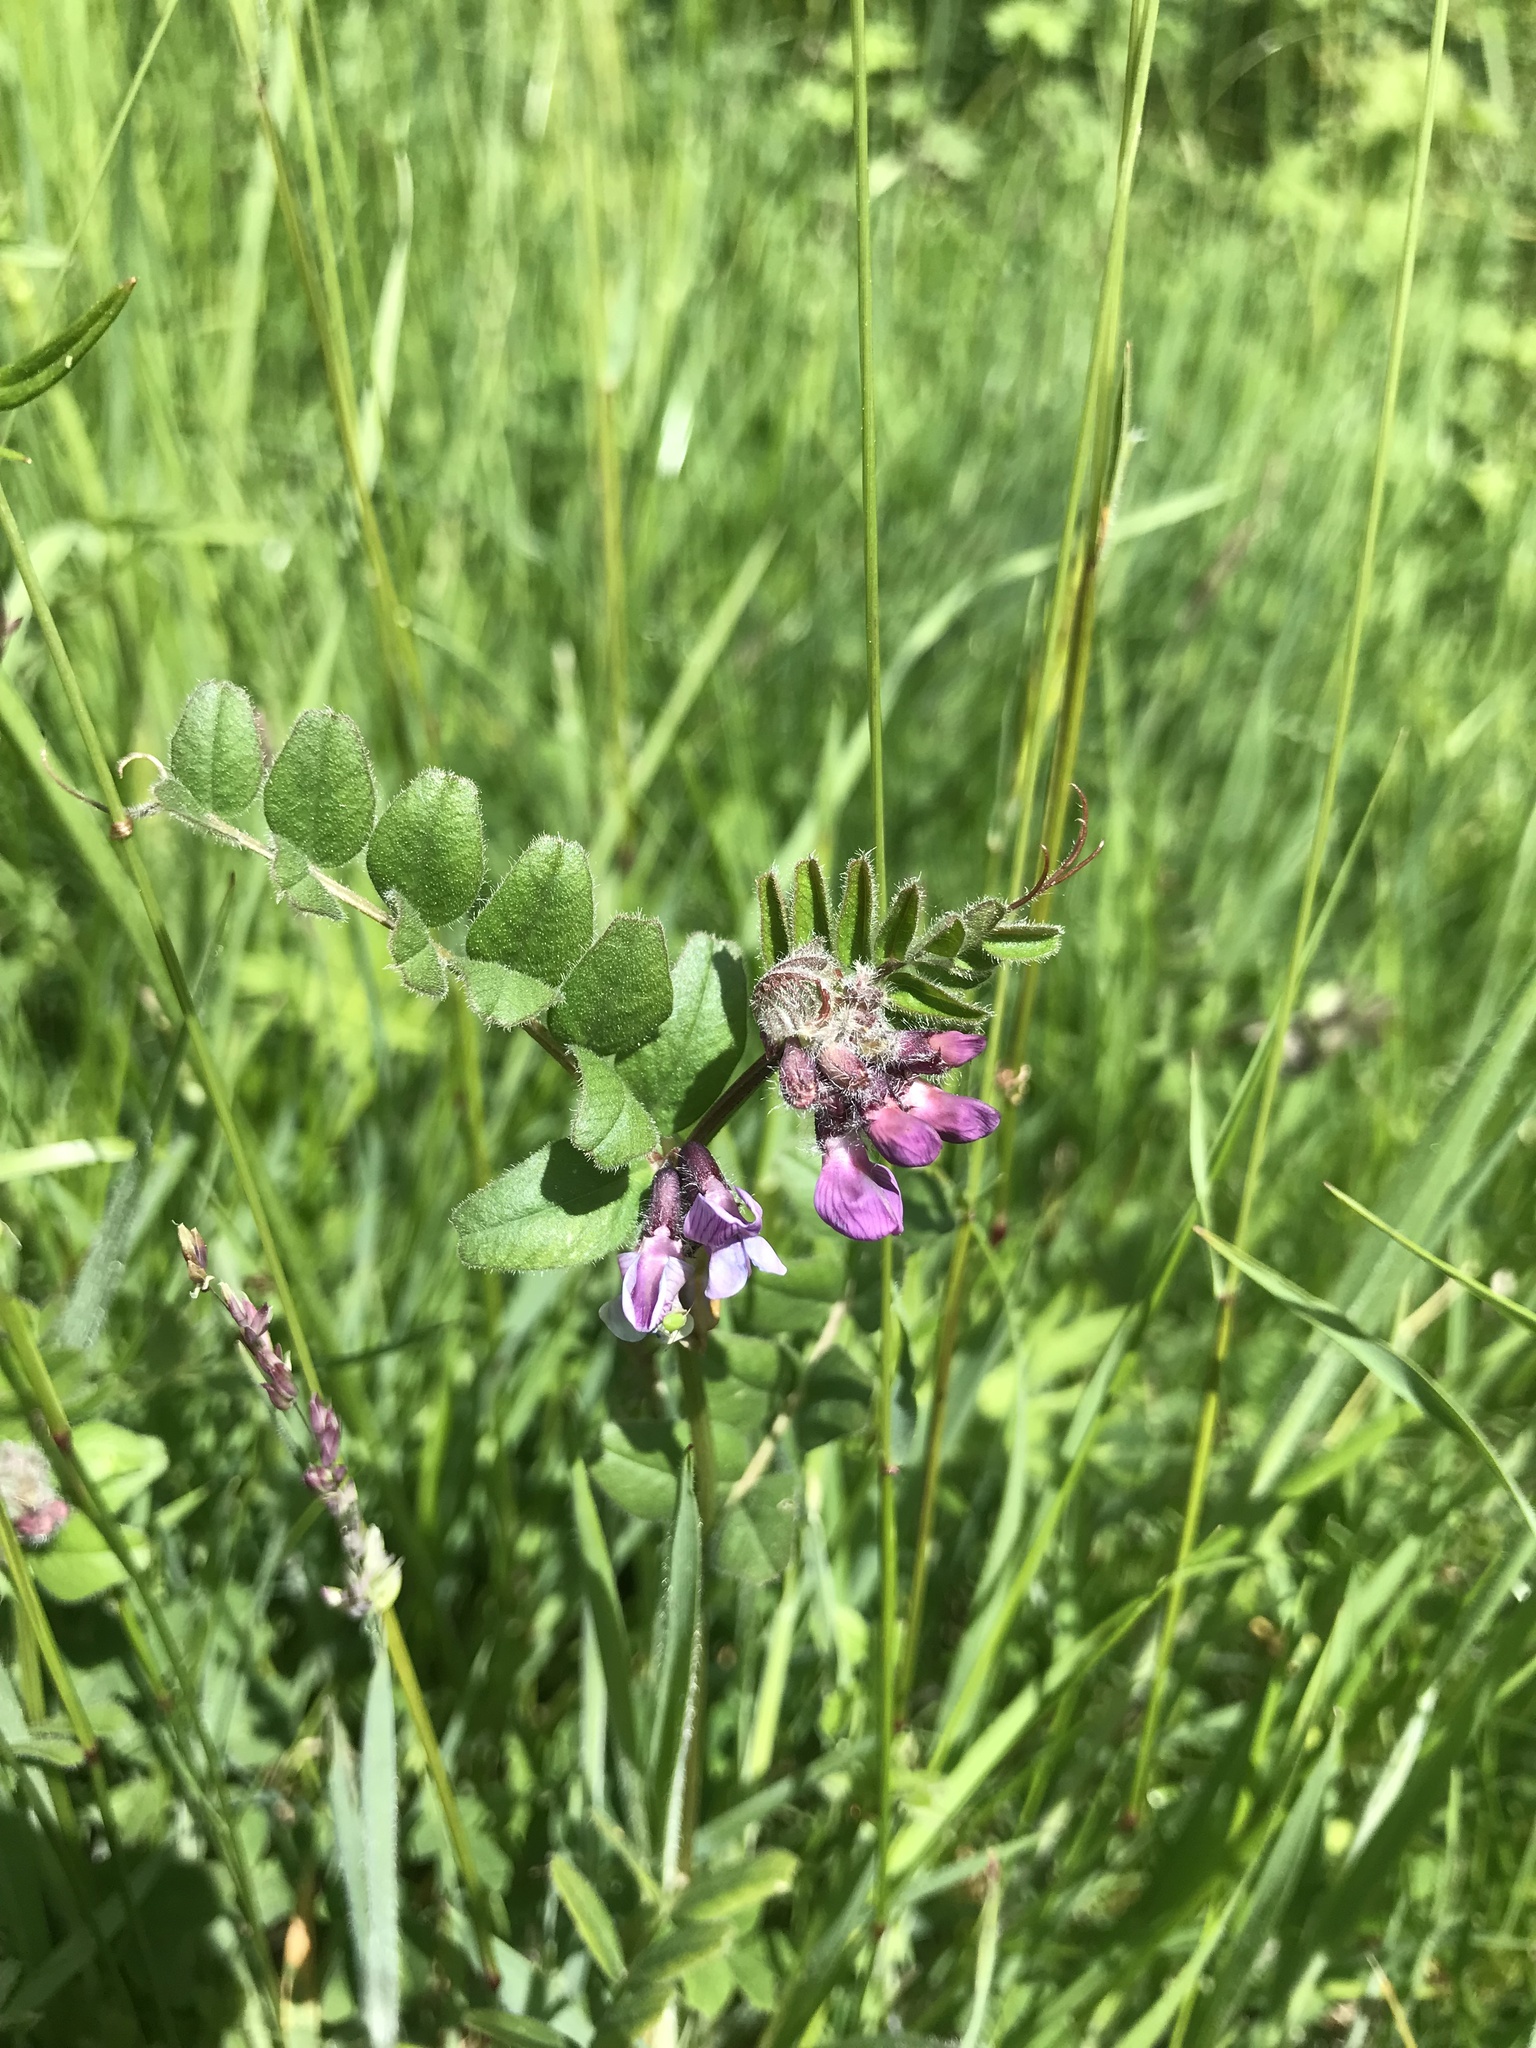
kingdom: Plantae
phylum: Tracheophyta
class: Magnoliopsida
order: Fabales
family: Fabaceae
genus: Vicia
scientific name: Vicia sepium
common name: Bush vetch
